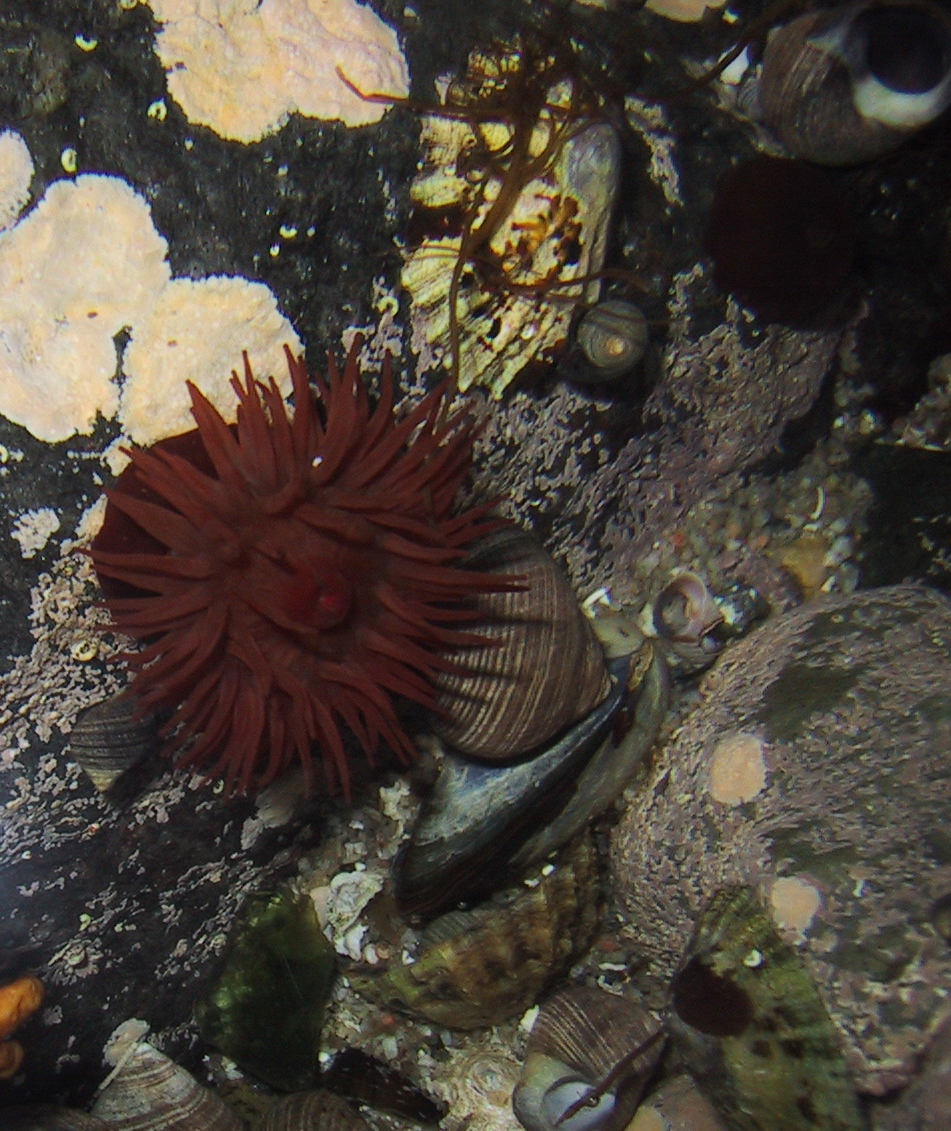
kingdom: Animalia
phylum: Cnidaria
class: Anthozoa
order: Actiniaria
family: Actiniidae
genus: Actinia
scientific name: Actinia equina
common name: Beadlet anemone
